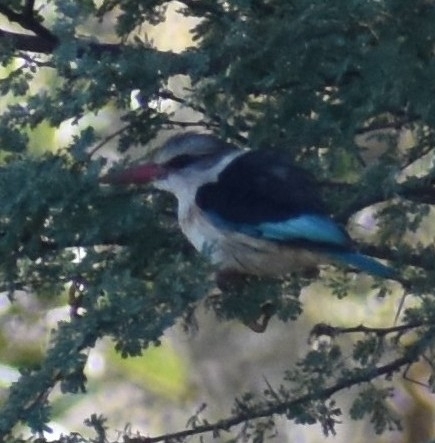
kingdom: Animalia
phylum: Chordata
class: Aves
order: Coraciiformes
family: Alcedinidae
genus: Halcyon
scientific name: Halcyon albiventris
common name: Brown-hooded kingfisher
